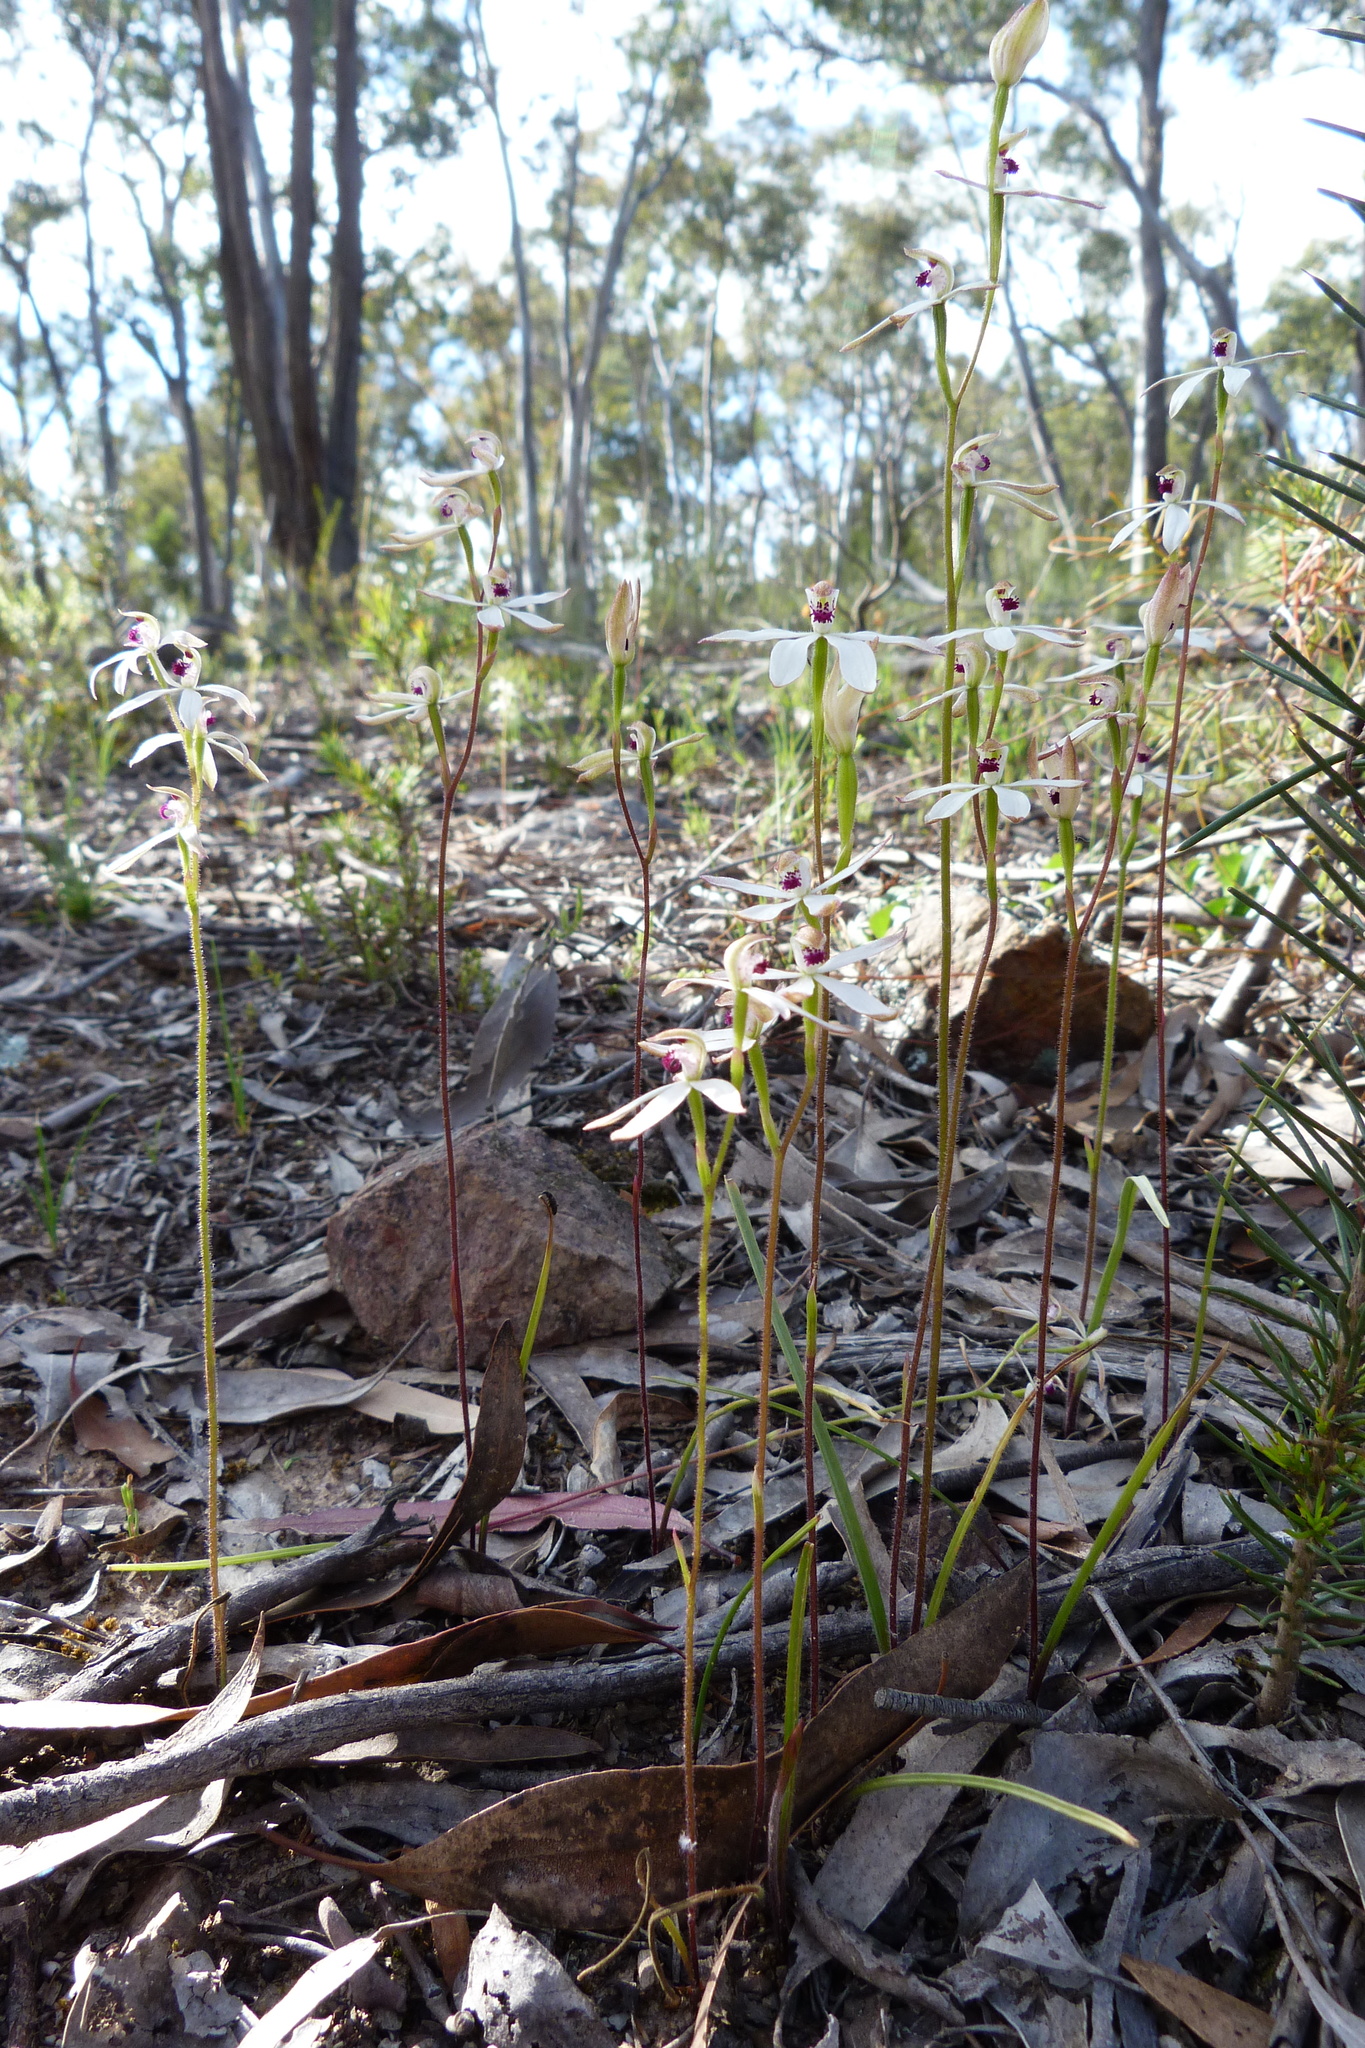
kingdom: Plantae
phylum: Tracheophyta
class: Liliopsida
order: Asparagales
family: Orchidaceae
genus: Caladenia
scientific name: Caladenia cucullata
